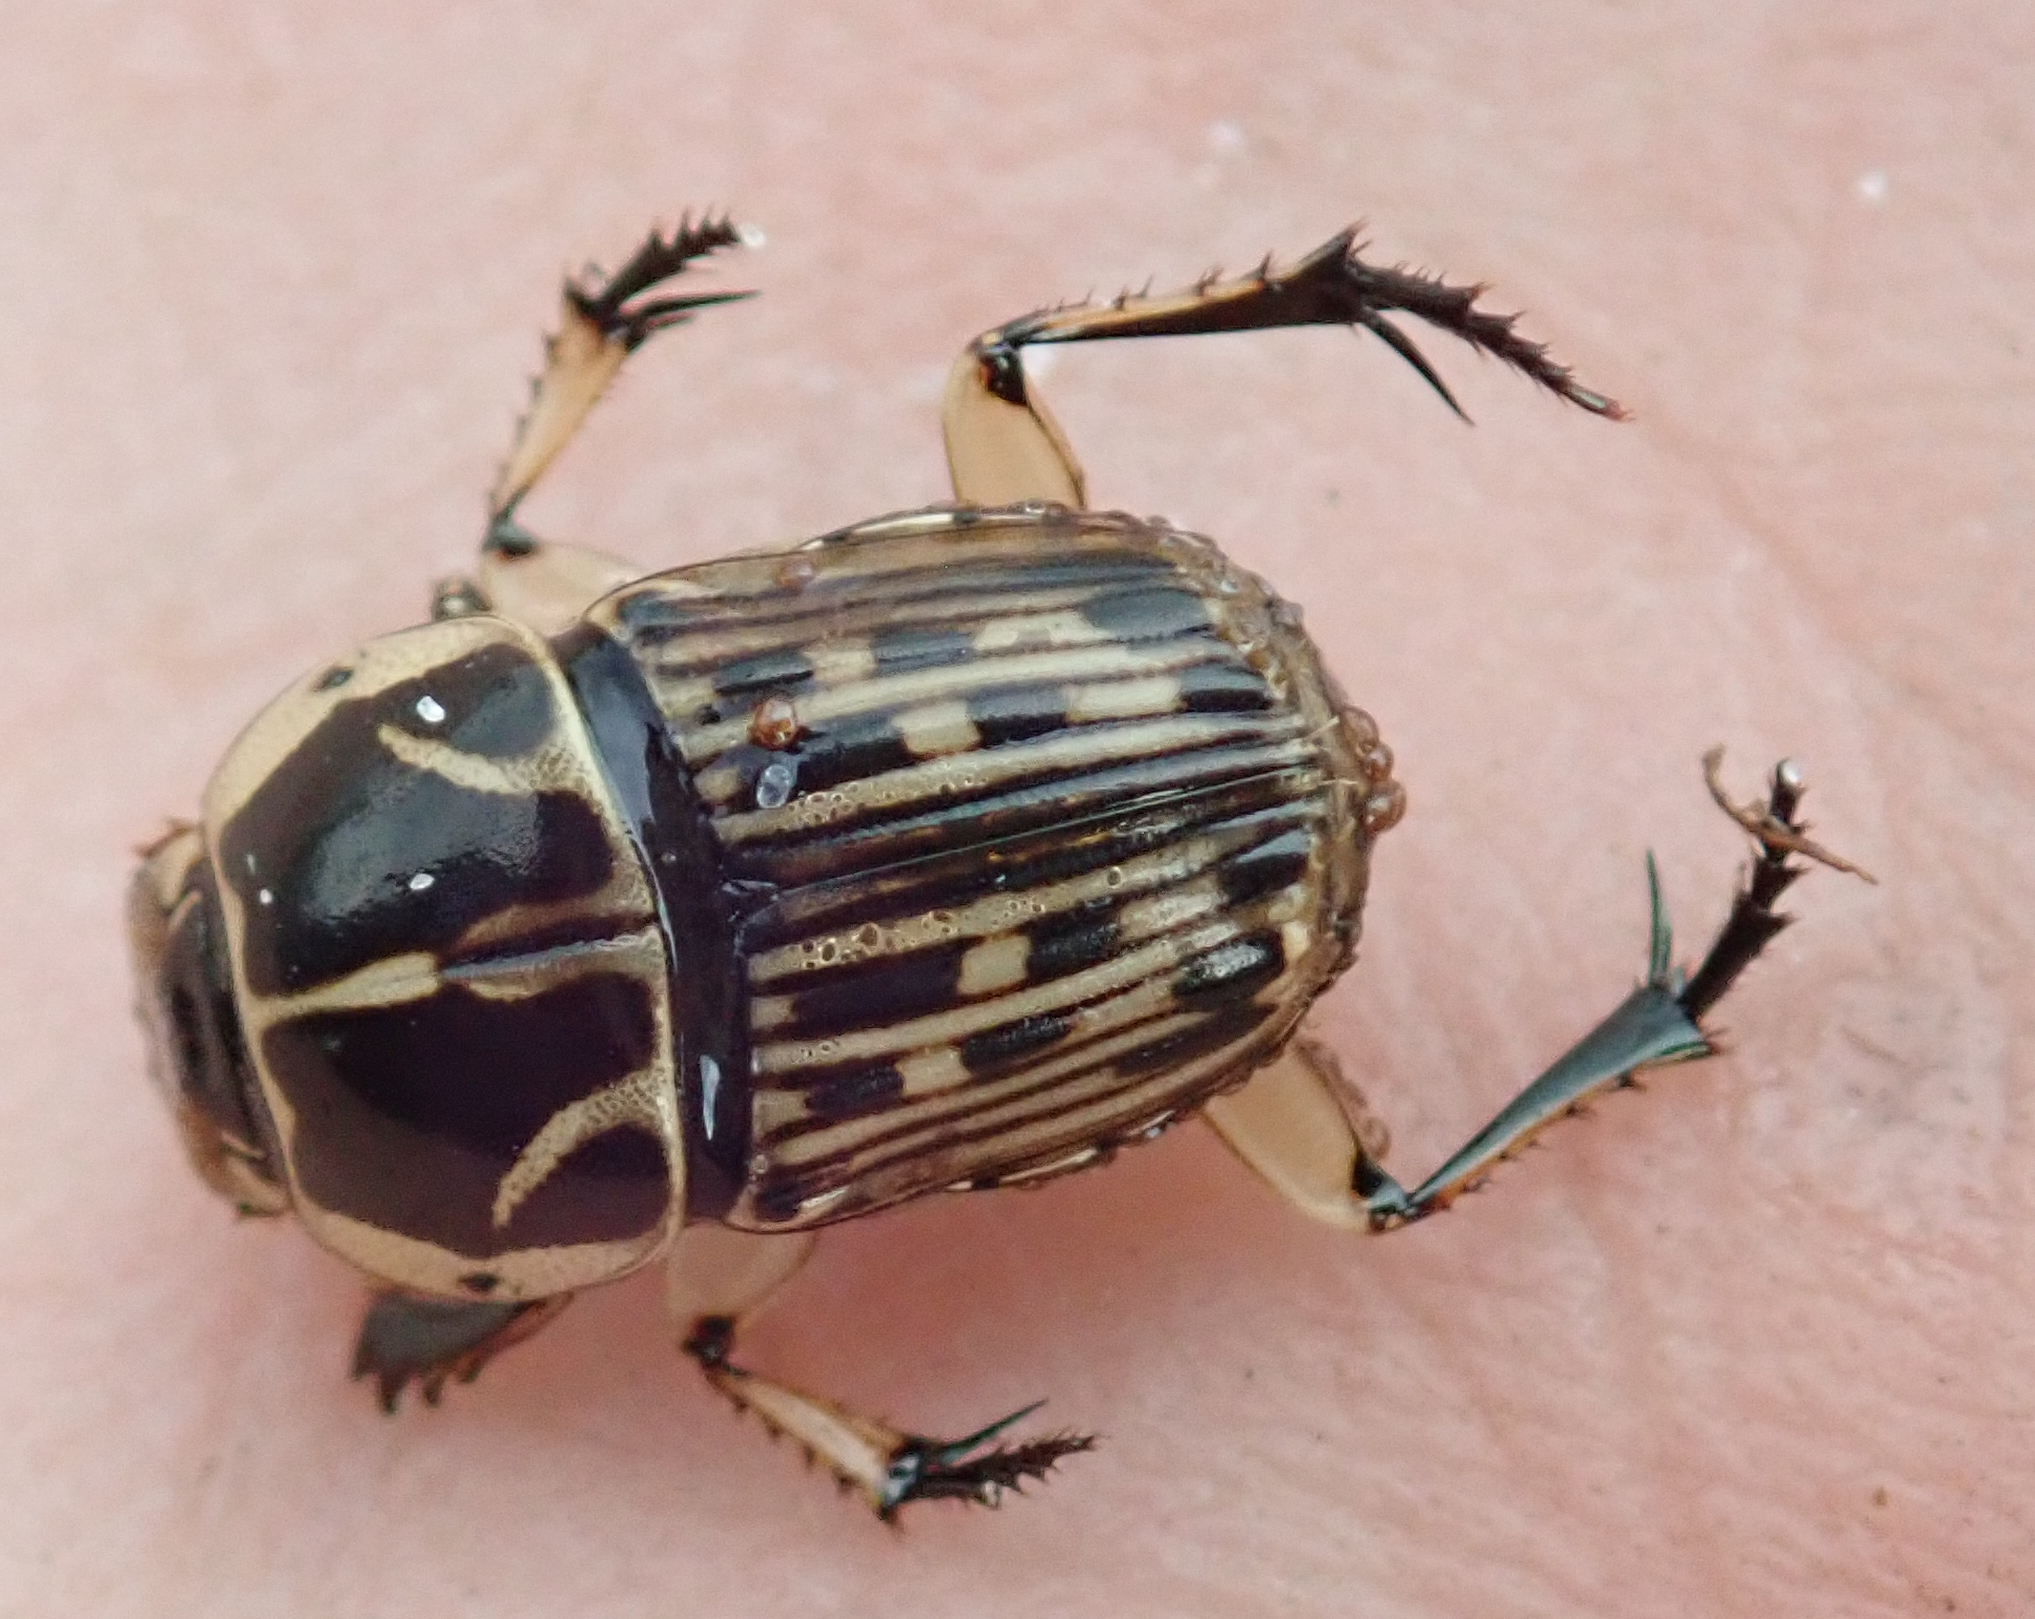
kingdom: Animalia
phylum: Arthropoda
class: Insecta
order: Coleoptera
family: Scarabaeidae
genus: Oniticellus
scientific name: Oniticellus pictus
